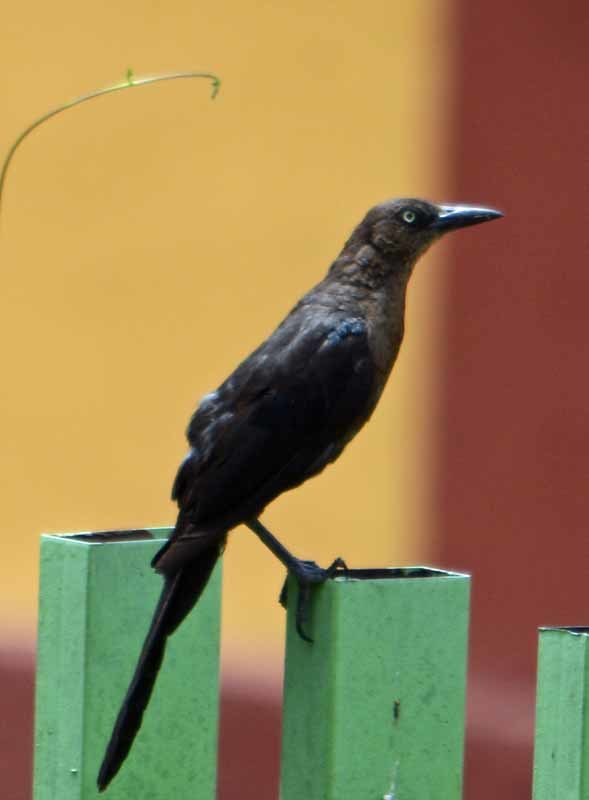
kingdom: Animalia
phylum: Chordata
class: Aves
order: Passeriformes
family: Icteridae
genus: Quiscalus
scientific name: Quiscalus mexicanus
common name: Great-tailed grackle
